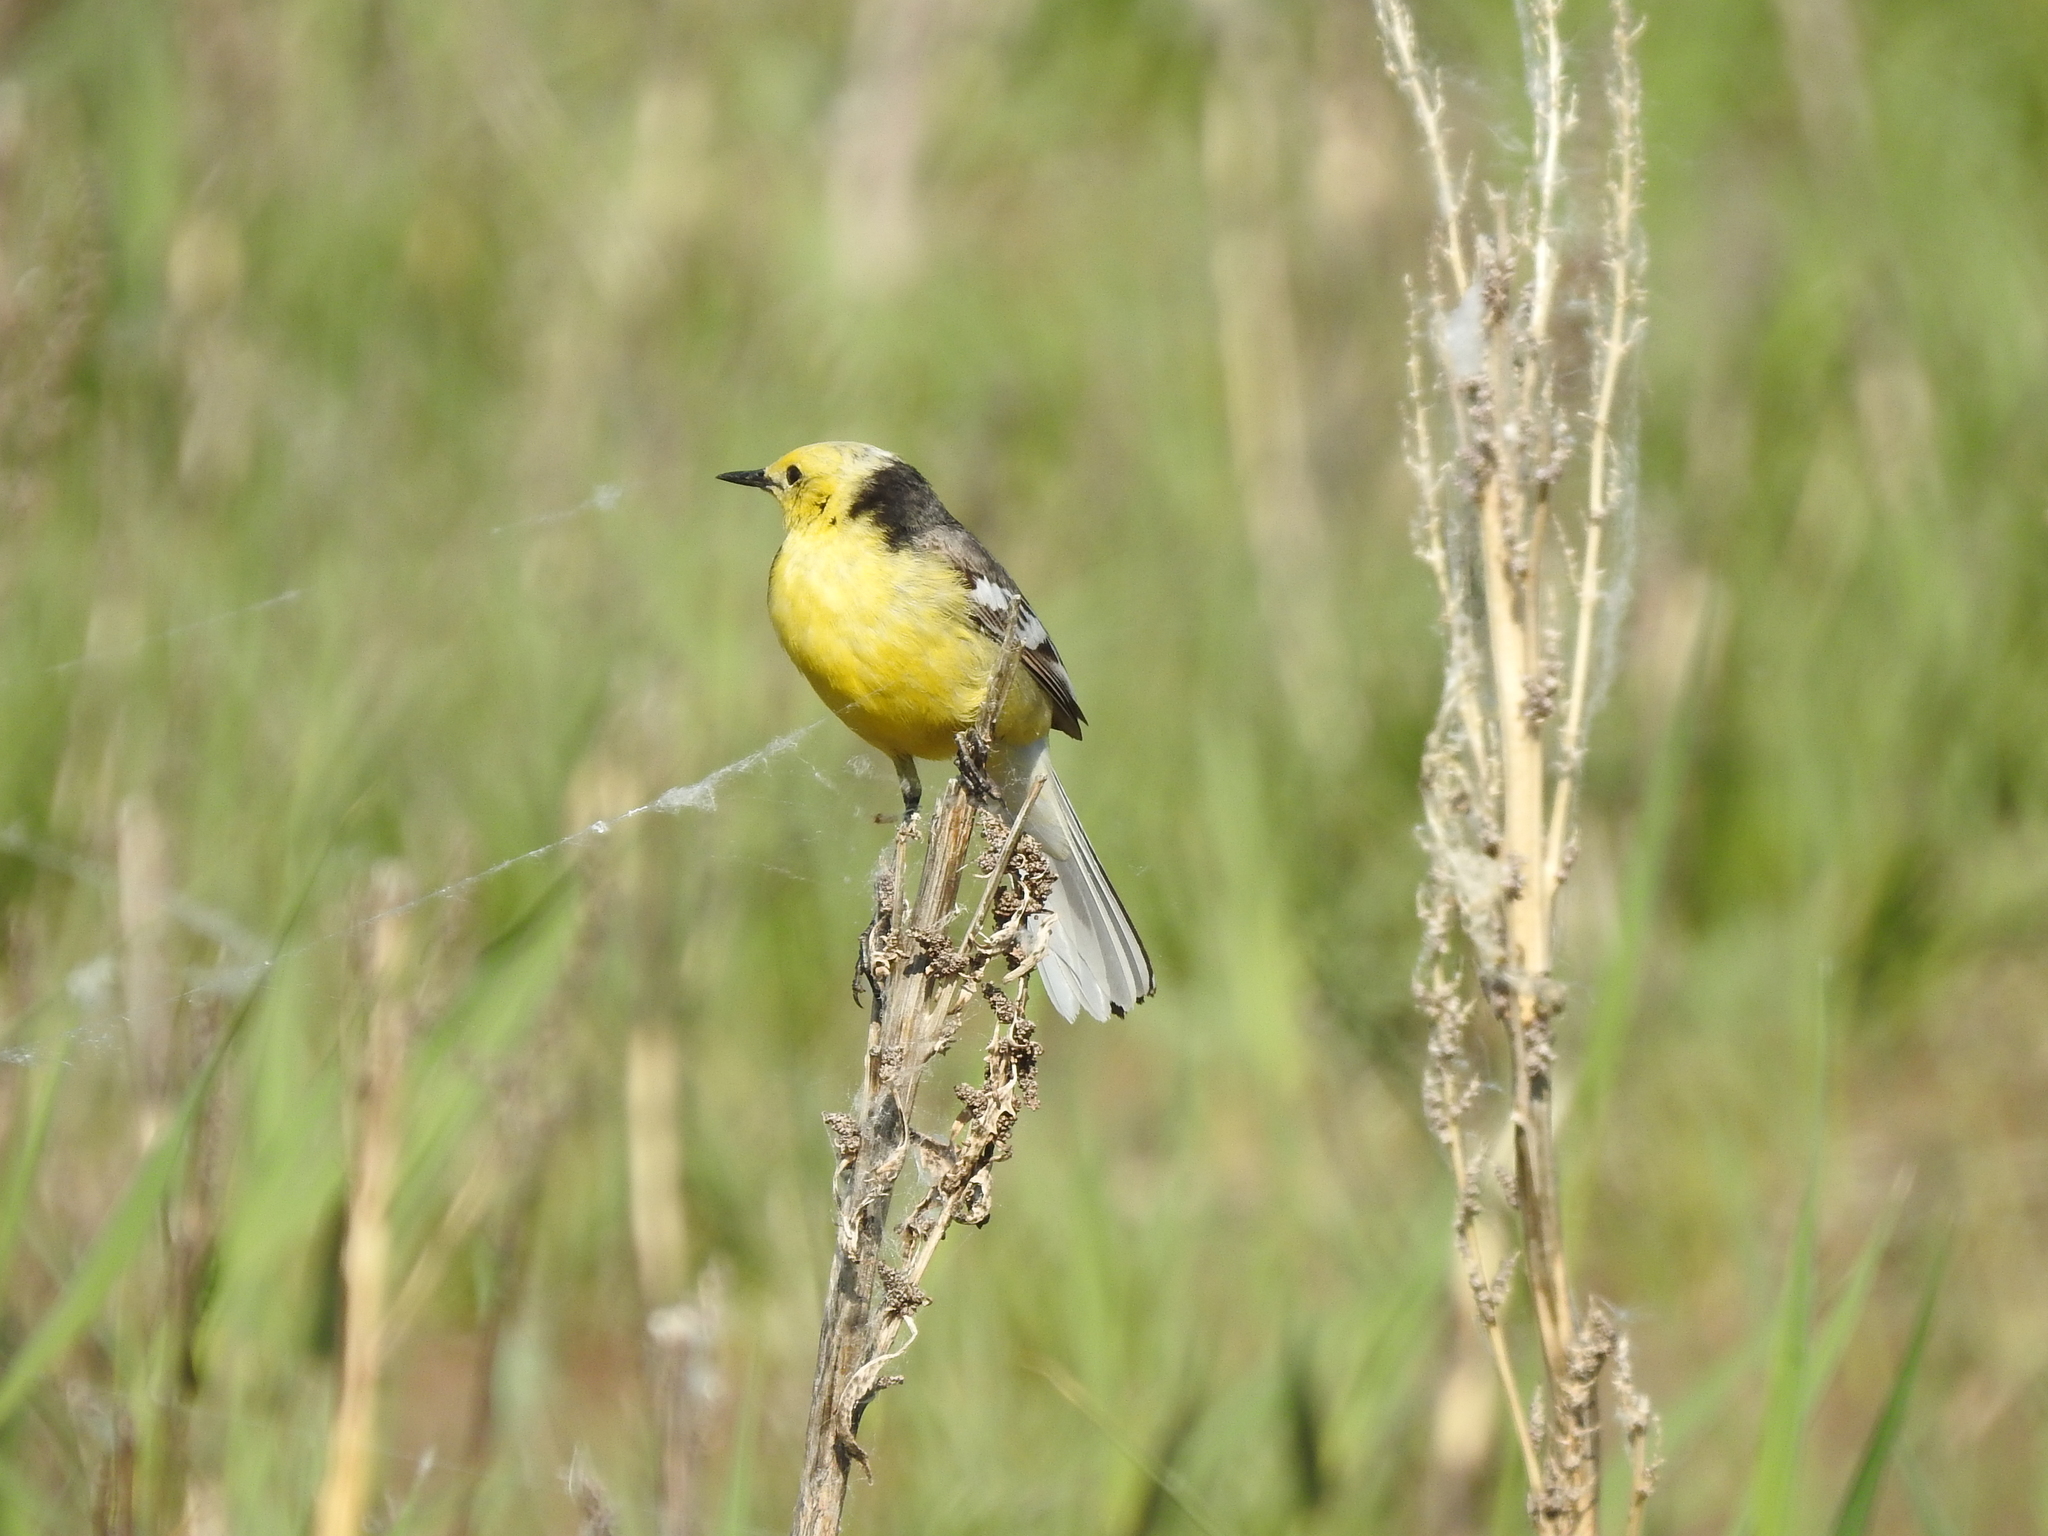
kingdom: Animalia
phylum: Chordata
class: Aves
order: Passeriformes
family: Motacillidae
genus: Motacilla
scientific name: Motacilla citreola
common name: Citrine wagtail
